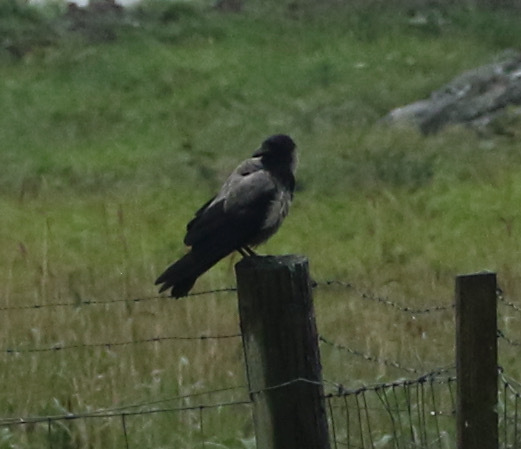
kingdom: Animalia
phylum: Chordata
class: Aves
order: Passeriformes
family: Corvidae
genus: Corvus
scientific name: Corvus
